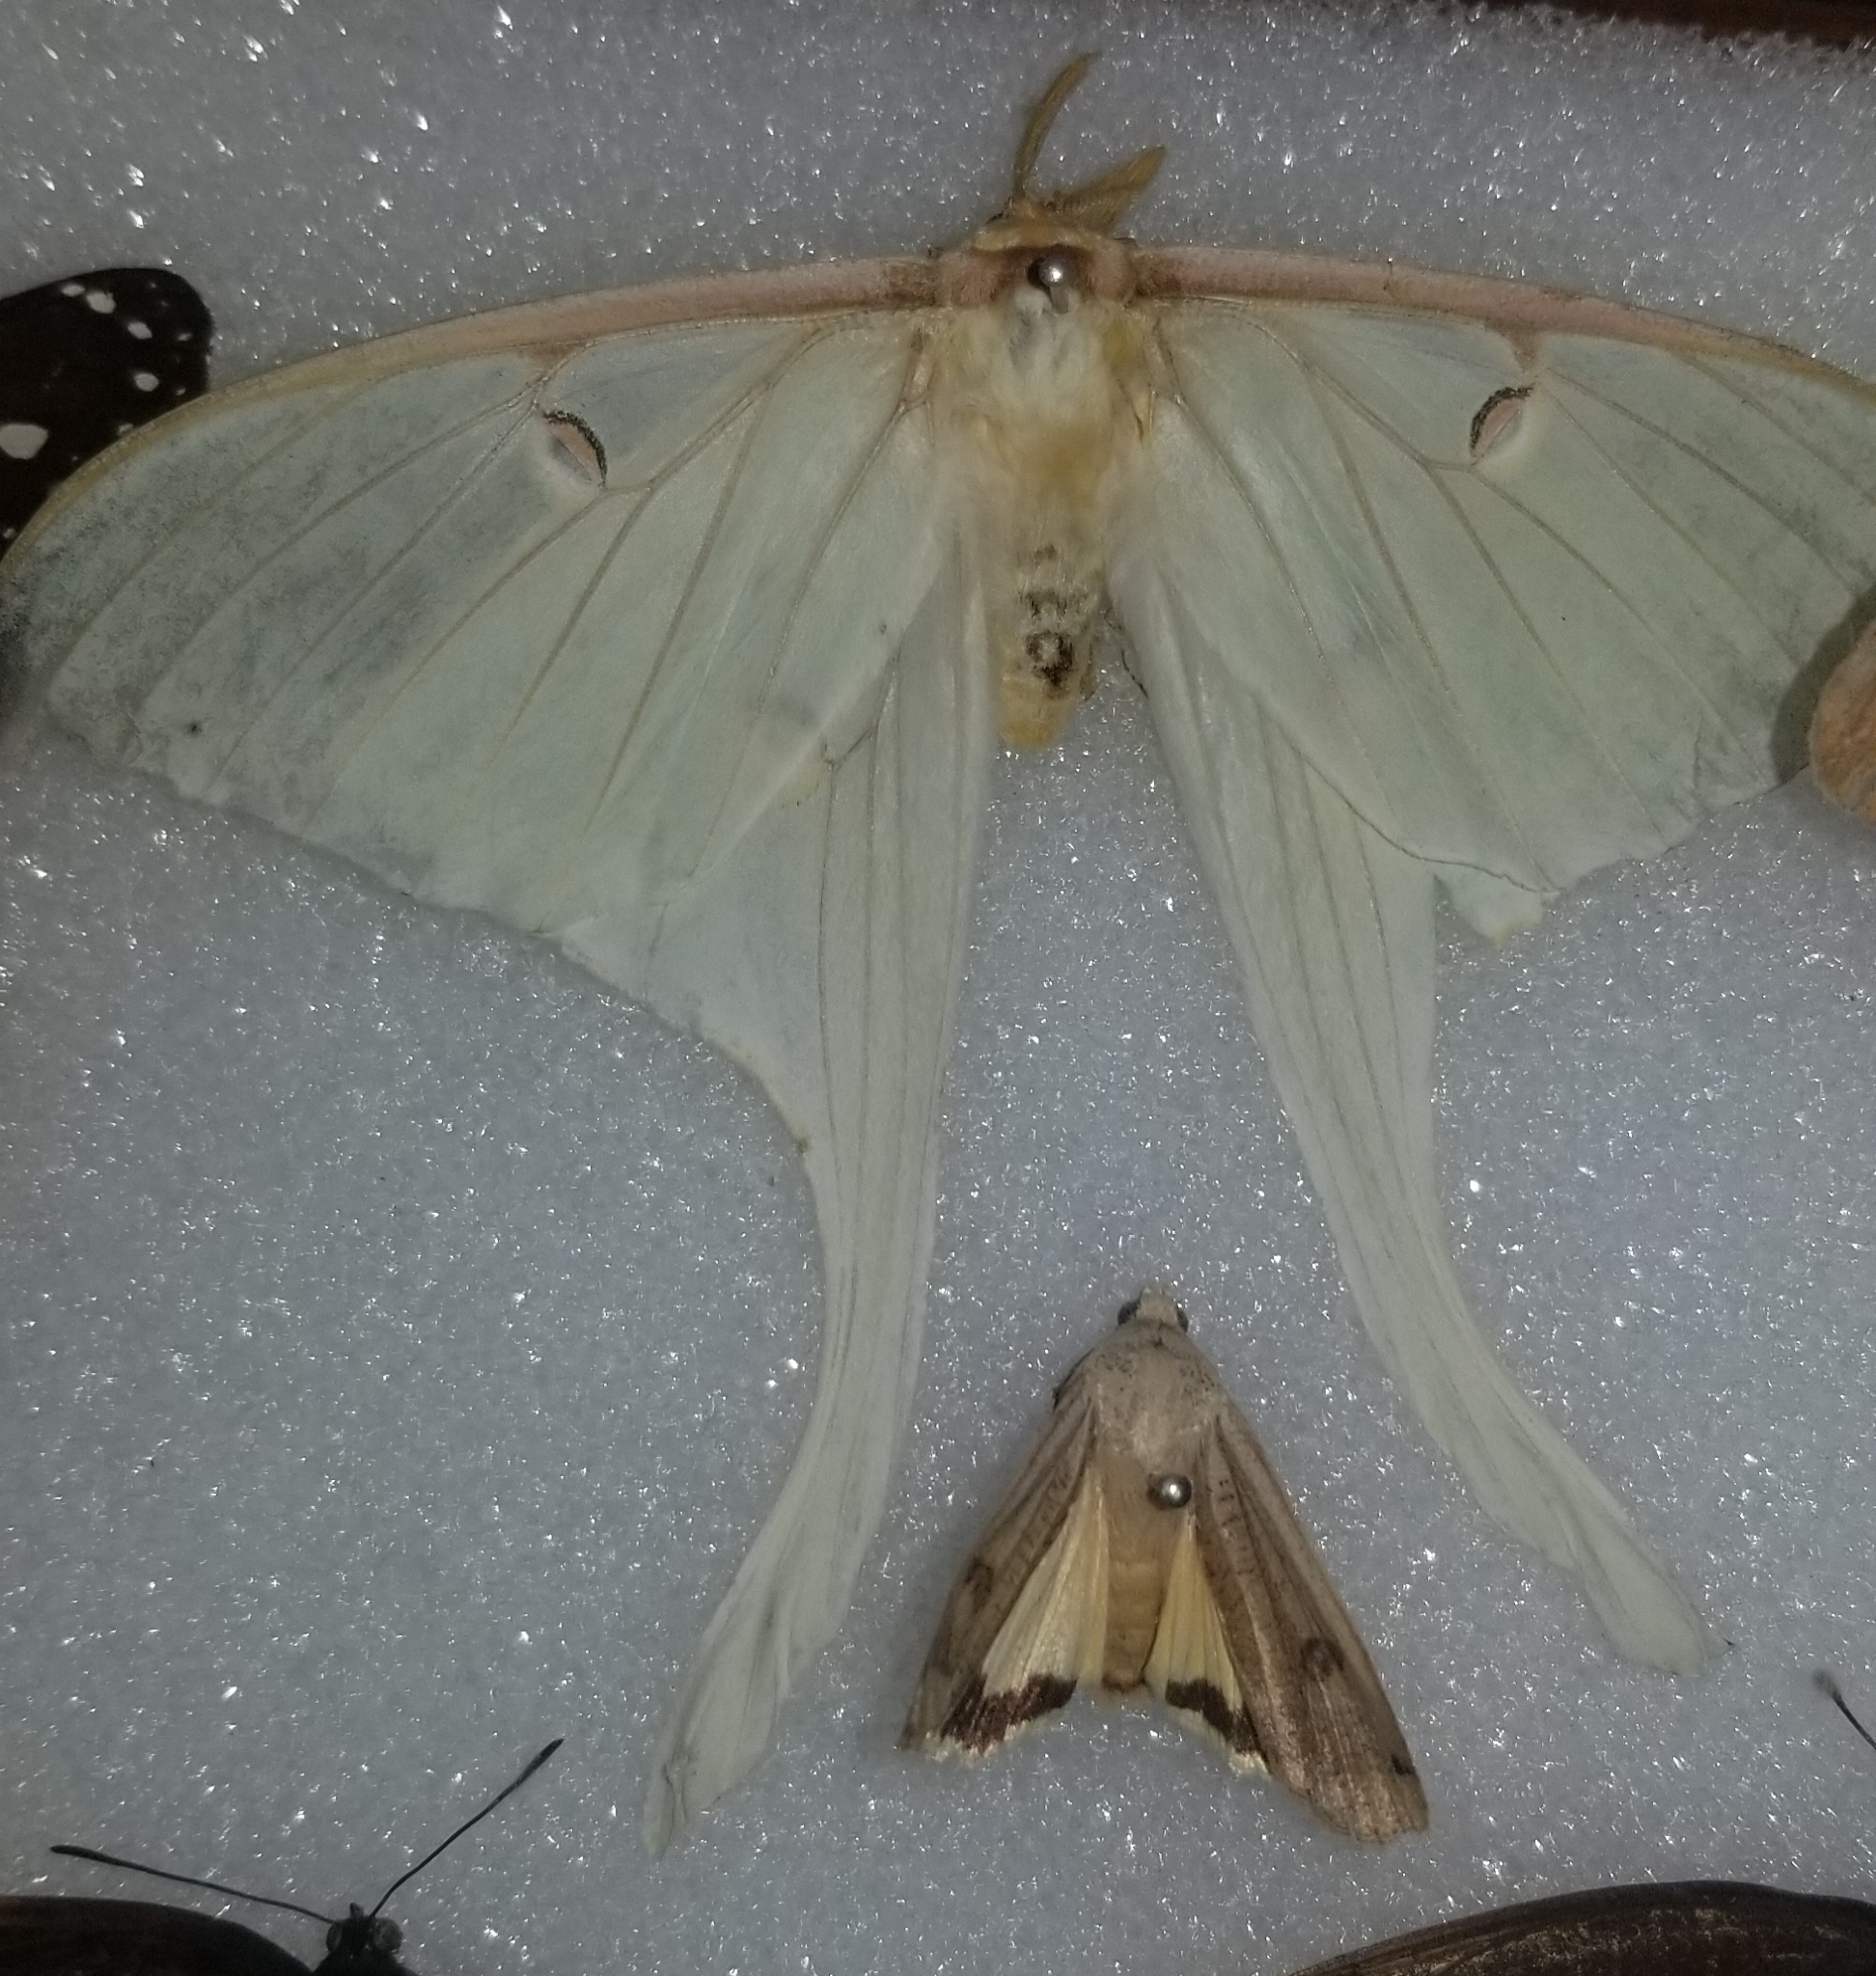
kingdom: Animalia
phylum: Arthropoda
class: Insecta
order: Lepidoptera
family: Saturniidae
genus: Actias
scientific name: Actias luna
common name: Luna moth
